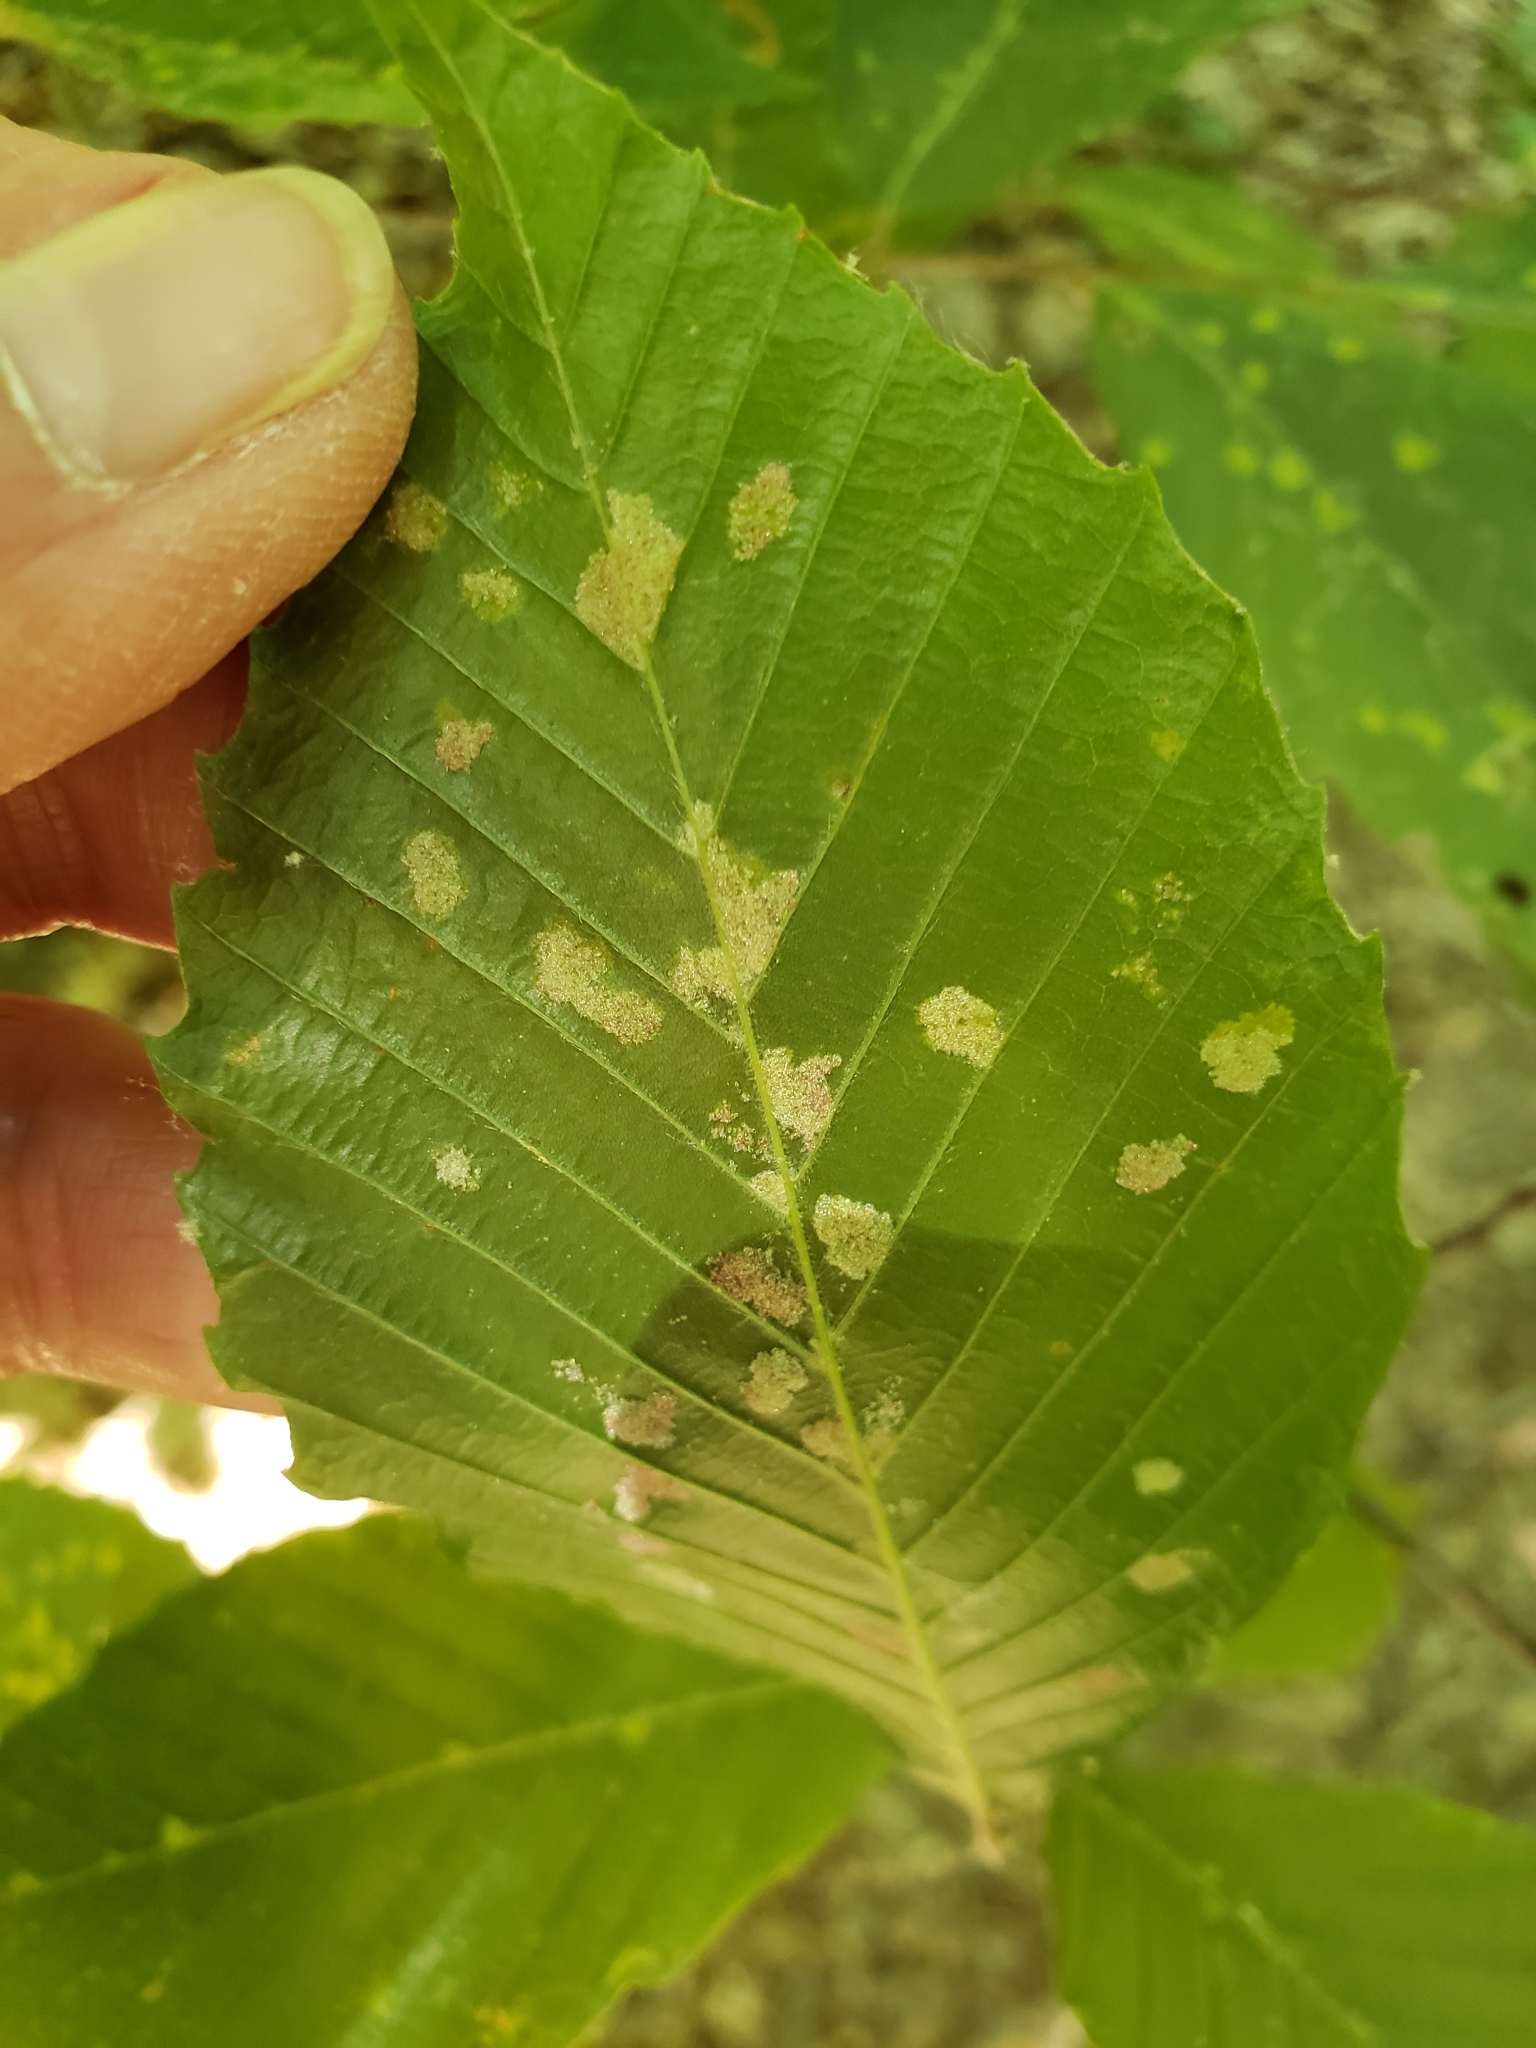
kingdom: Plantae
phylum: Tracheophyta
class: Magnoliopsida
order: Fagales
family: Fagaceae
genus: Fagus
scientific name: Fagus grandifolia
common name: American beech
